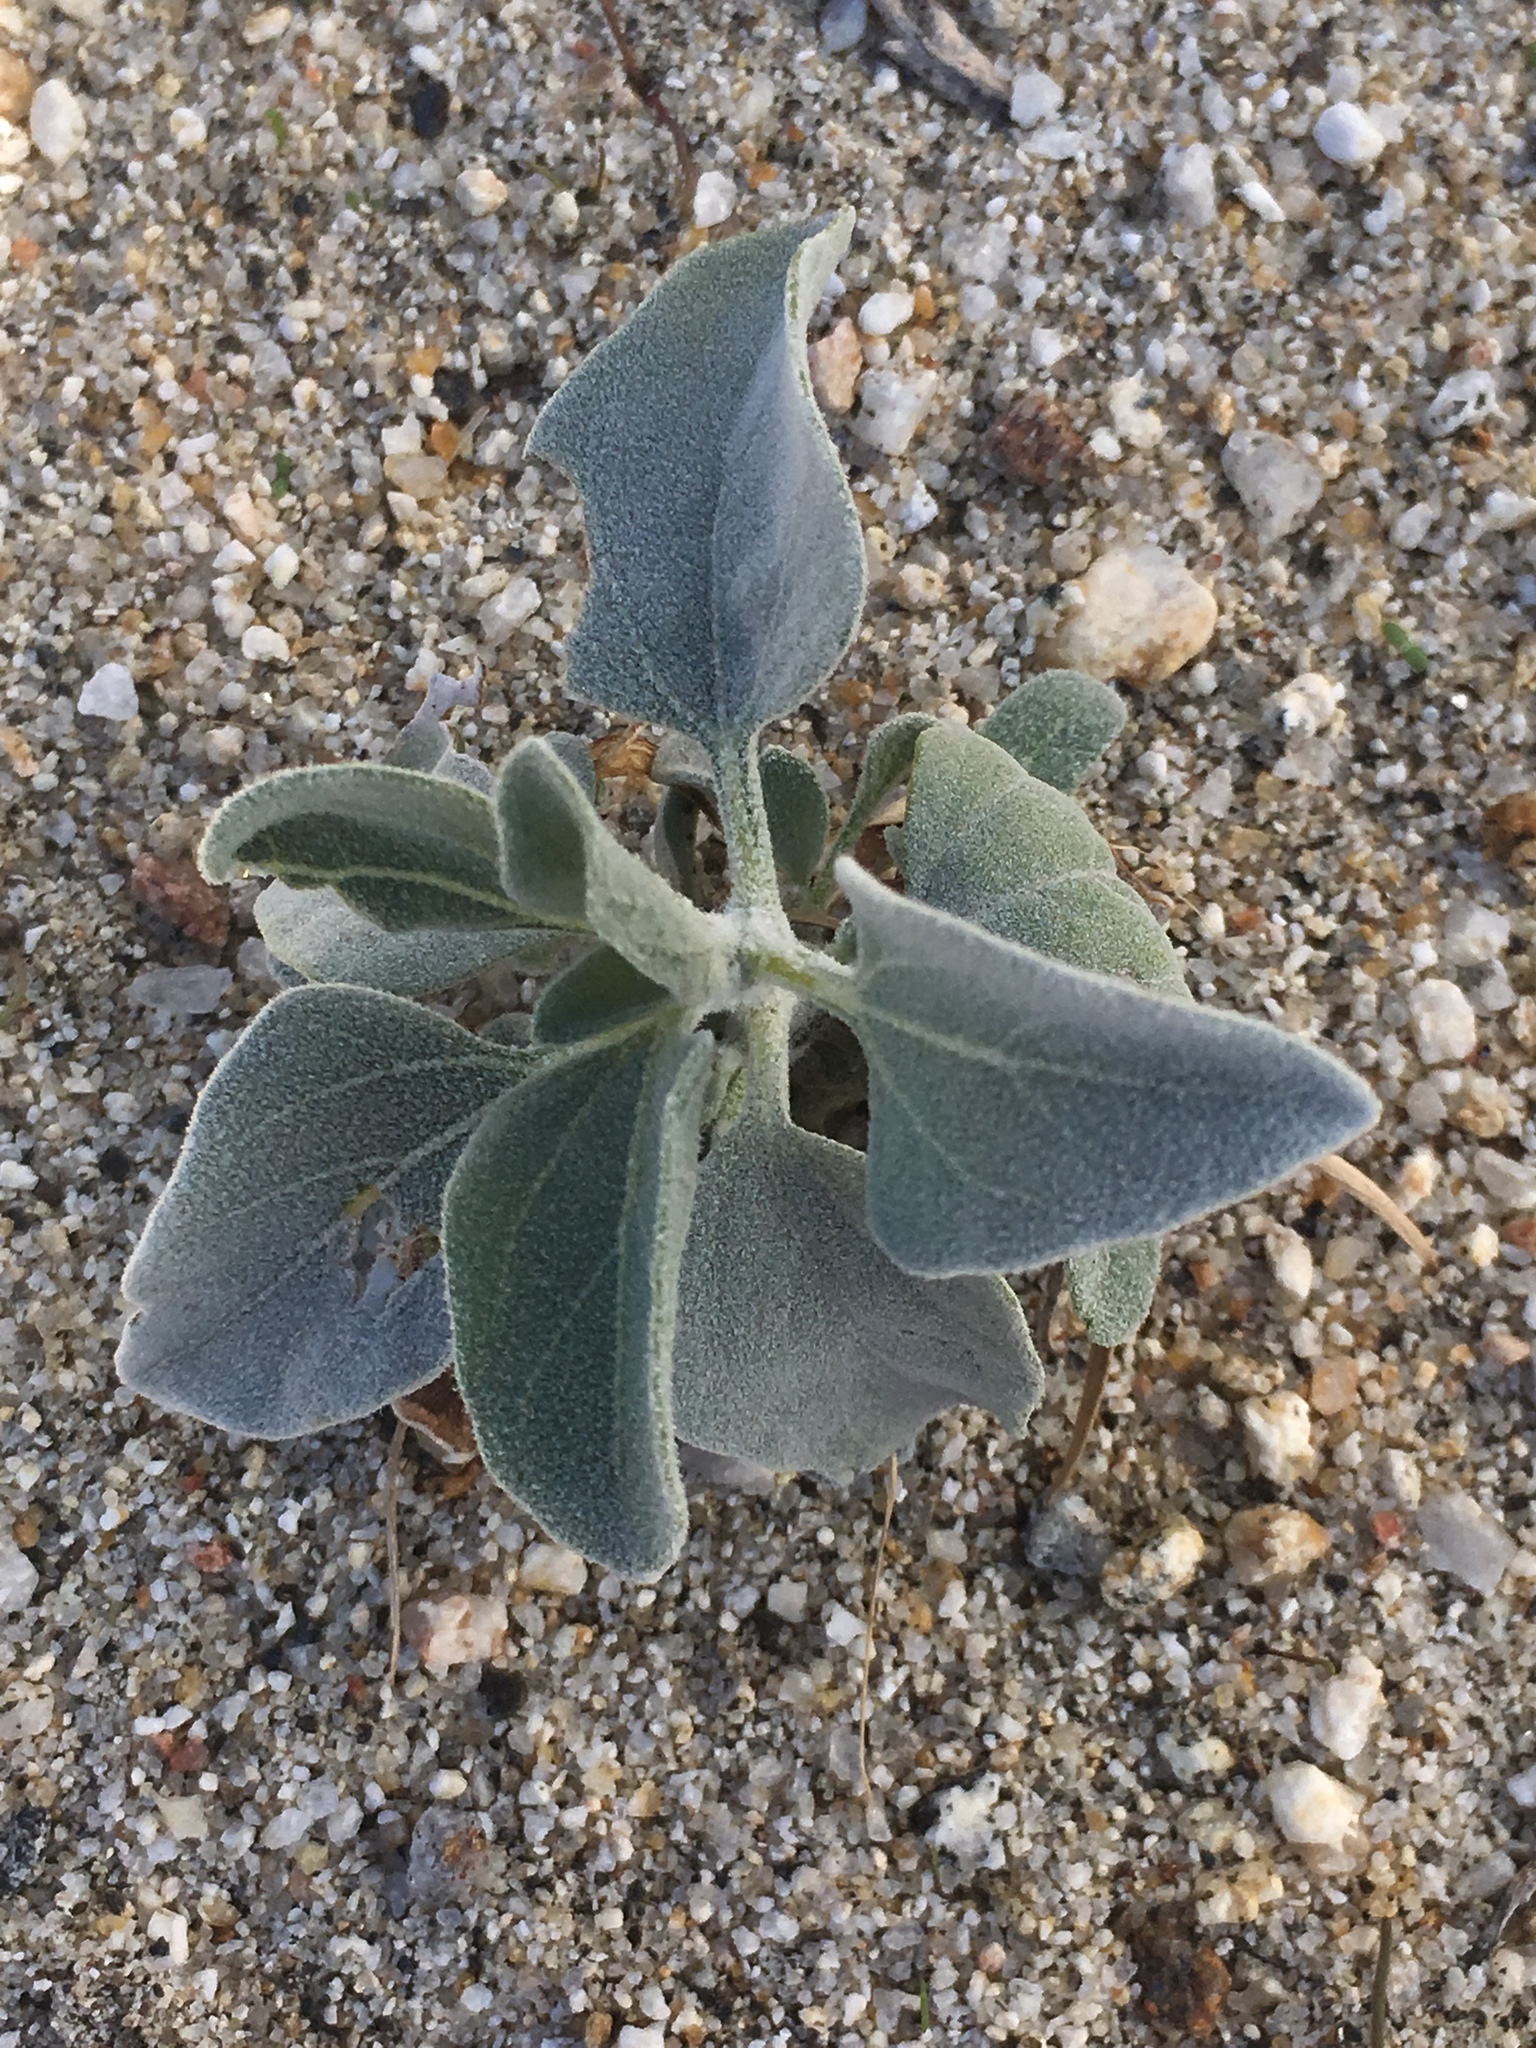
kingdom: Plantae
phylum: Tracheophyta
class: Magnoliopsida
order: Asterales
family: Asteraceae
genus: Encelia
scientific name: Encelia farinosa
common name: Brittlebush
